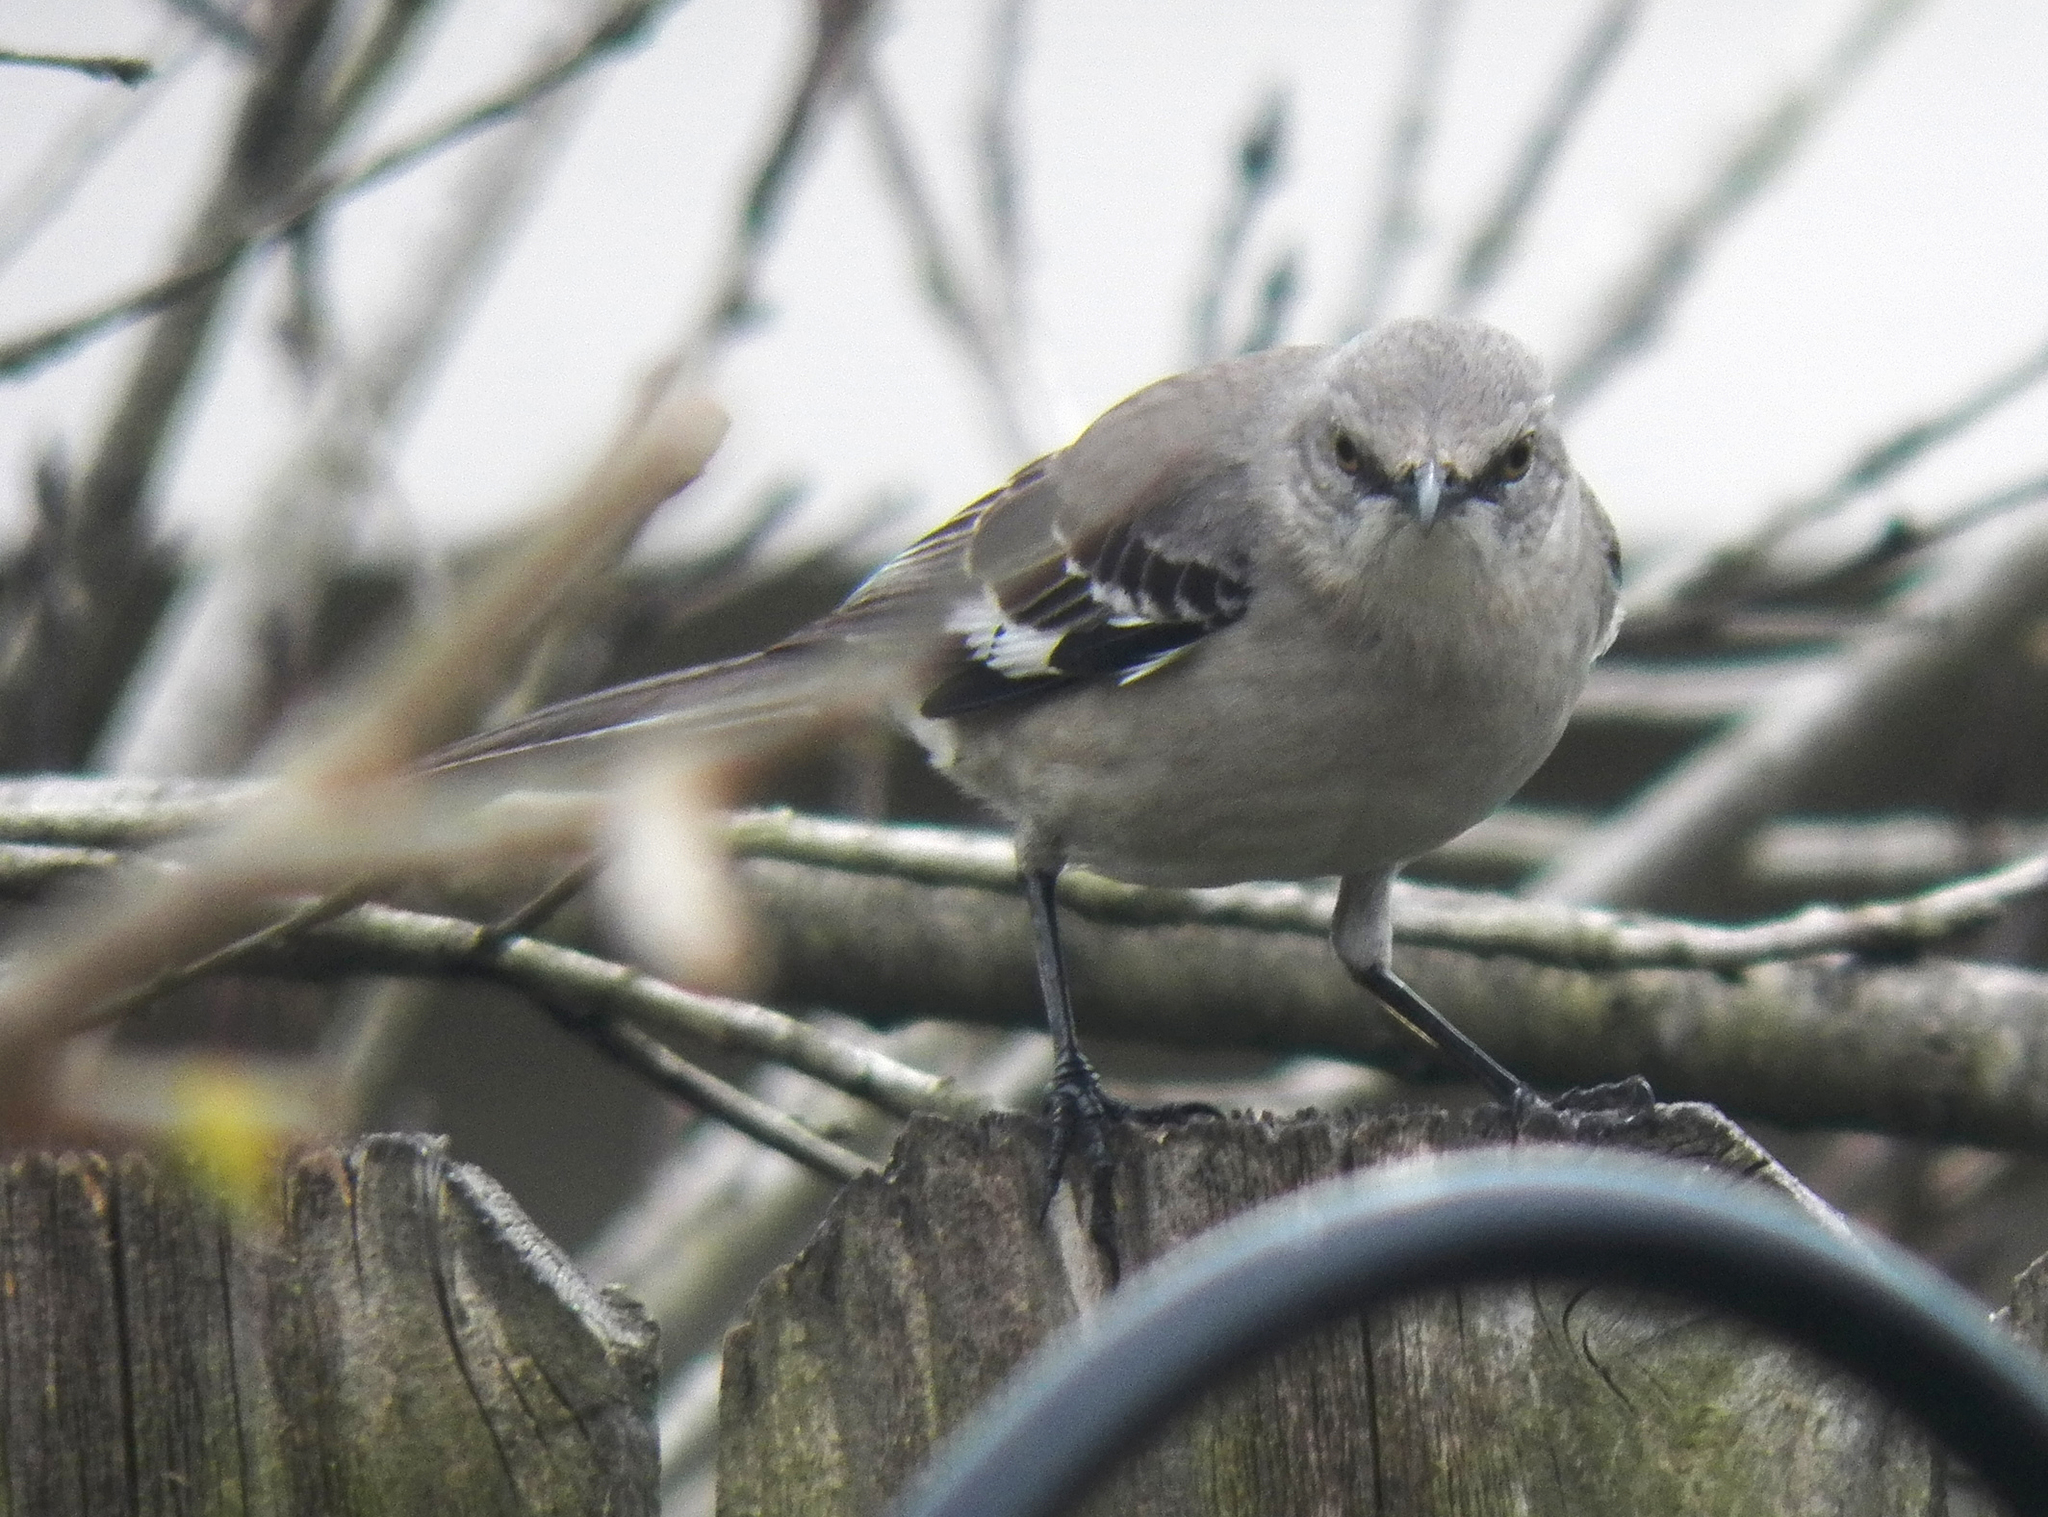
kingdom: Animalia
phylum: Chordata
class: Aves
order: Passeriformes
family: Mimidae
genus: Mimus
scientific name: Mimus polyglottos
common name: Northern mockingbird
